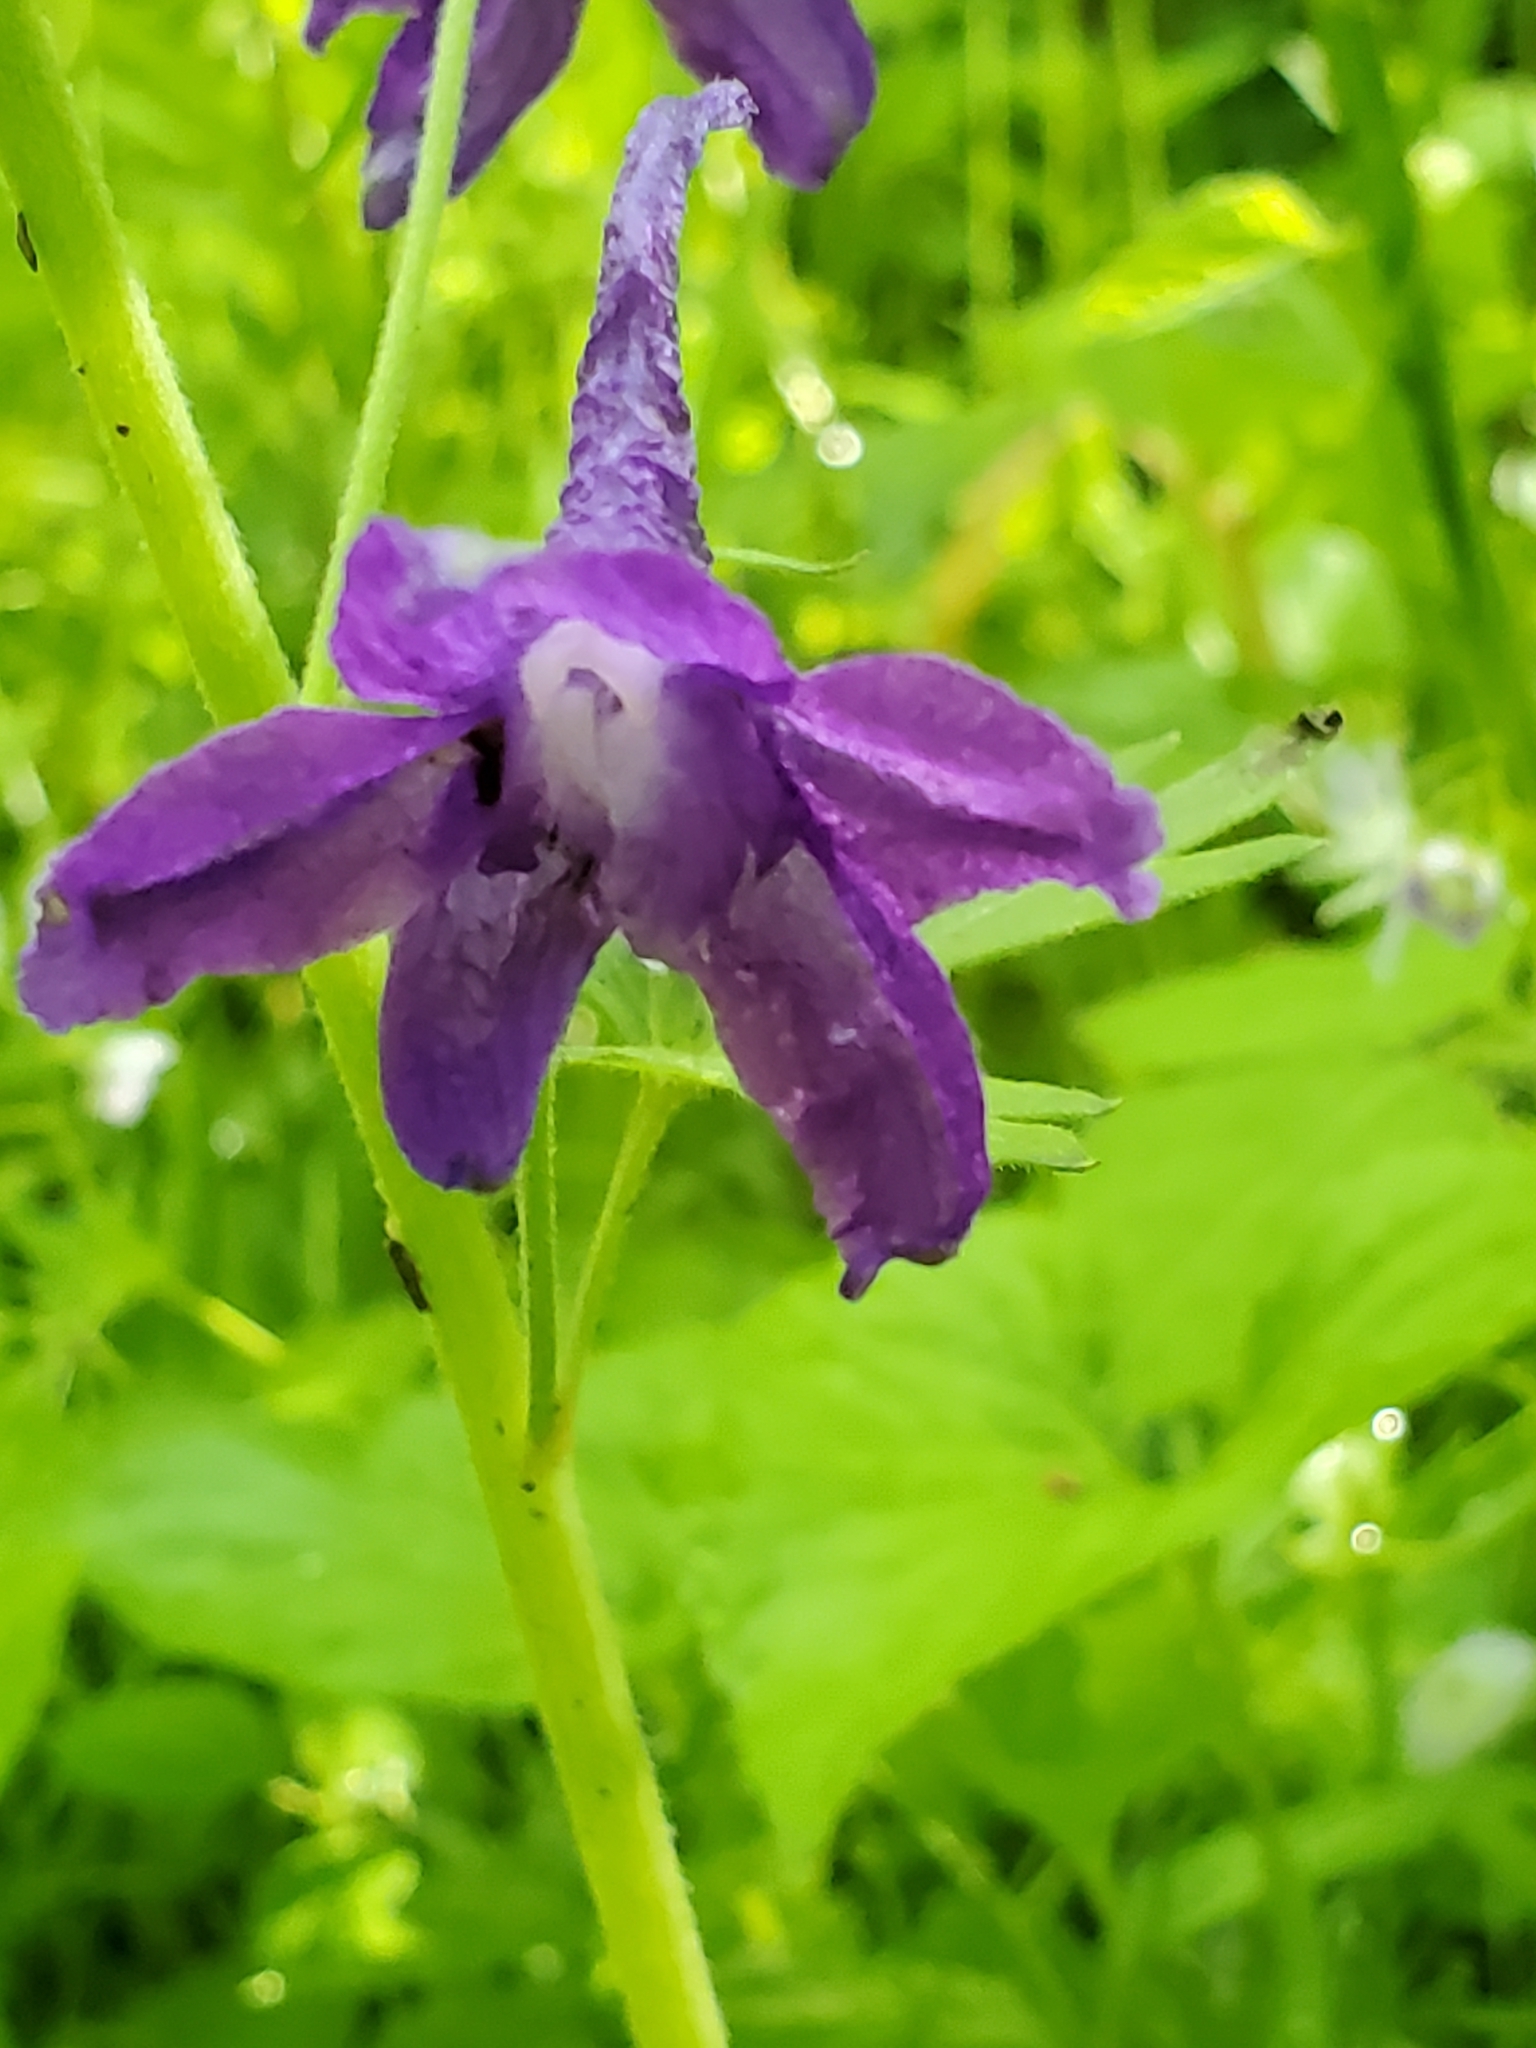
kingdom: Plantae
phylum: Tracheophyta
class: Magnoliopsida
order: Ranunculales
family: Ranunculaceae
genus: Delphinium
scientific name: Delphinium tricorne
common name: Dwarf larkspur
